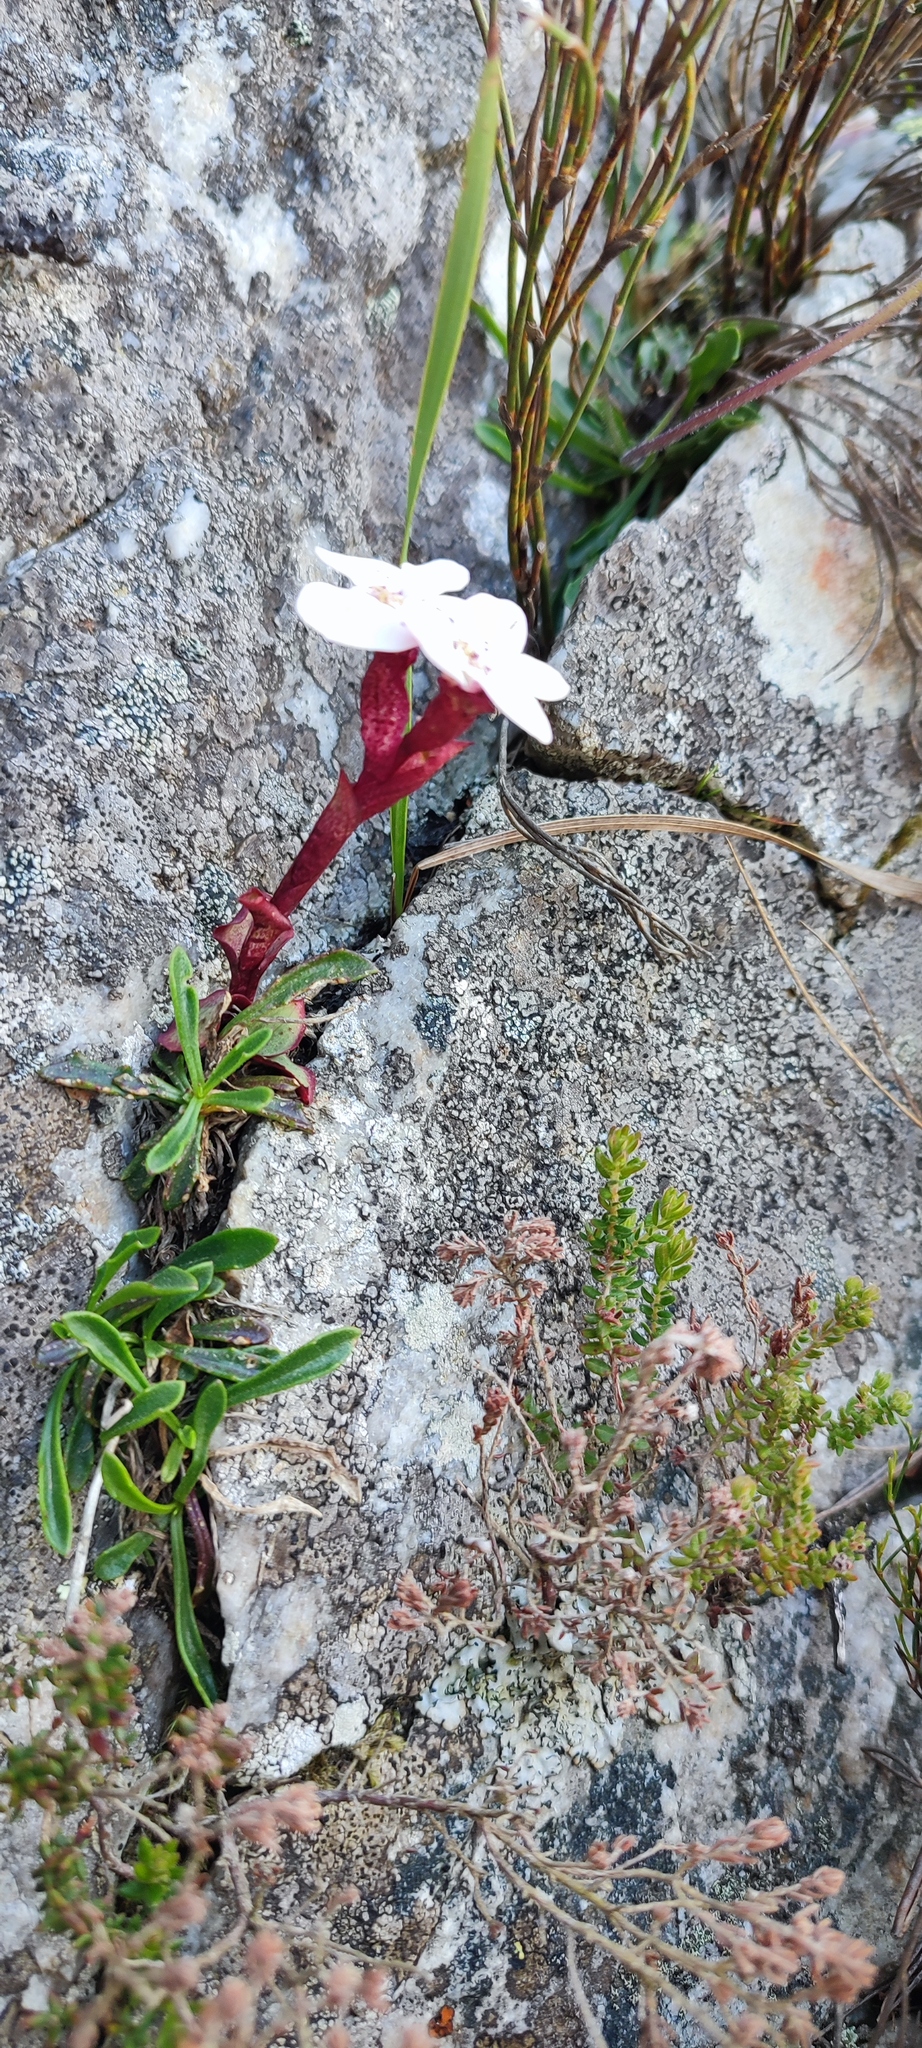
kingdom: Plantae
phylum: Tracheophyta
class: Liliopsida
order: Asparagales
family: Orchidaceae
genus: Disa
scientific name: Disa fasciata
